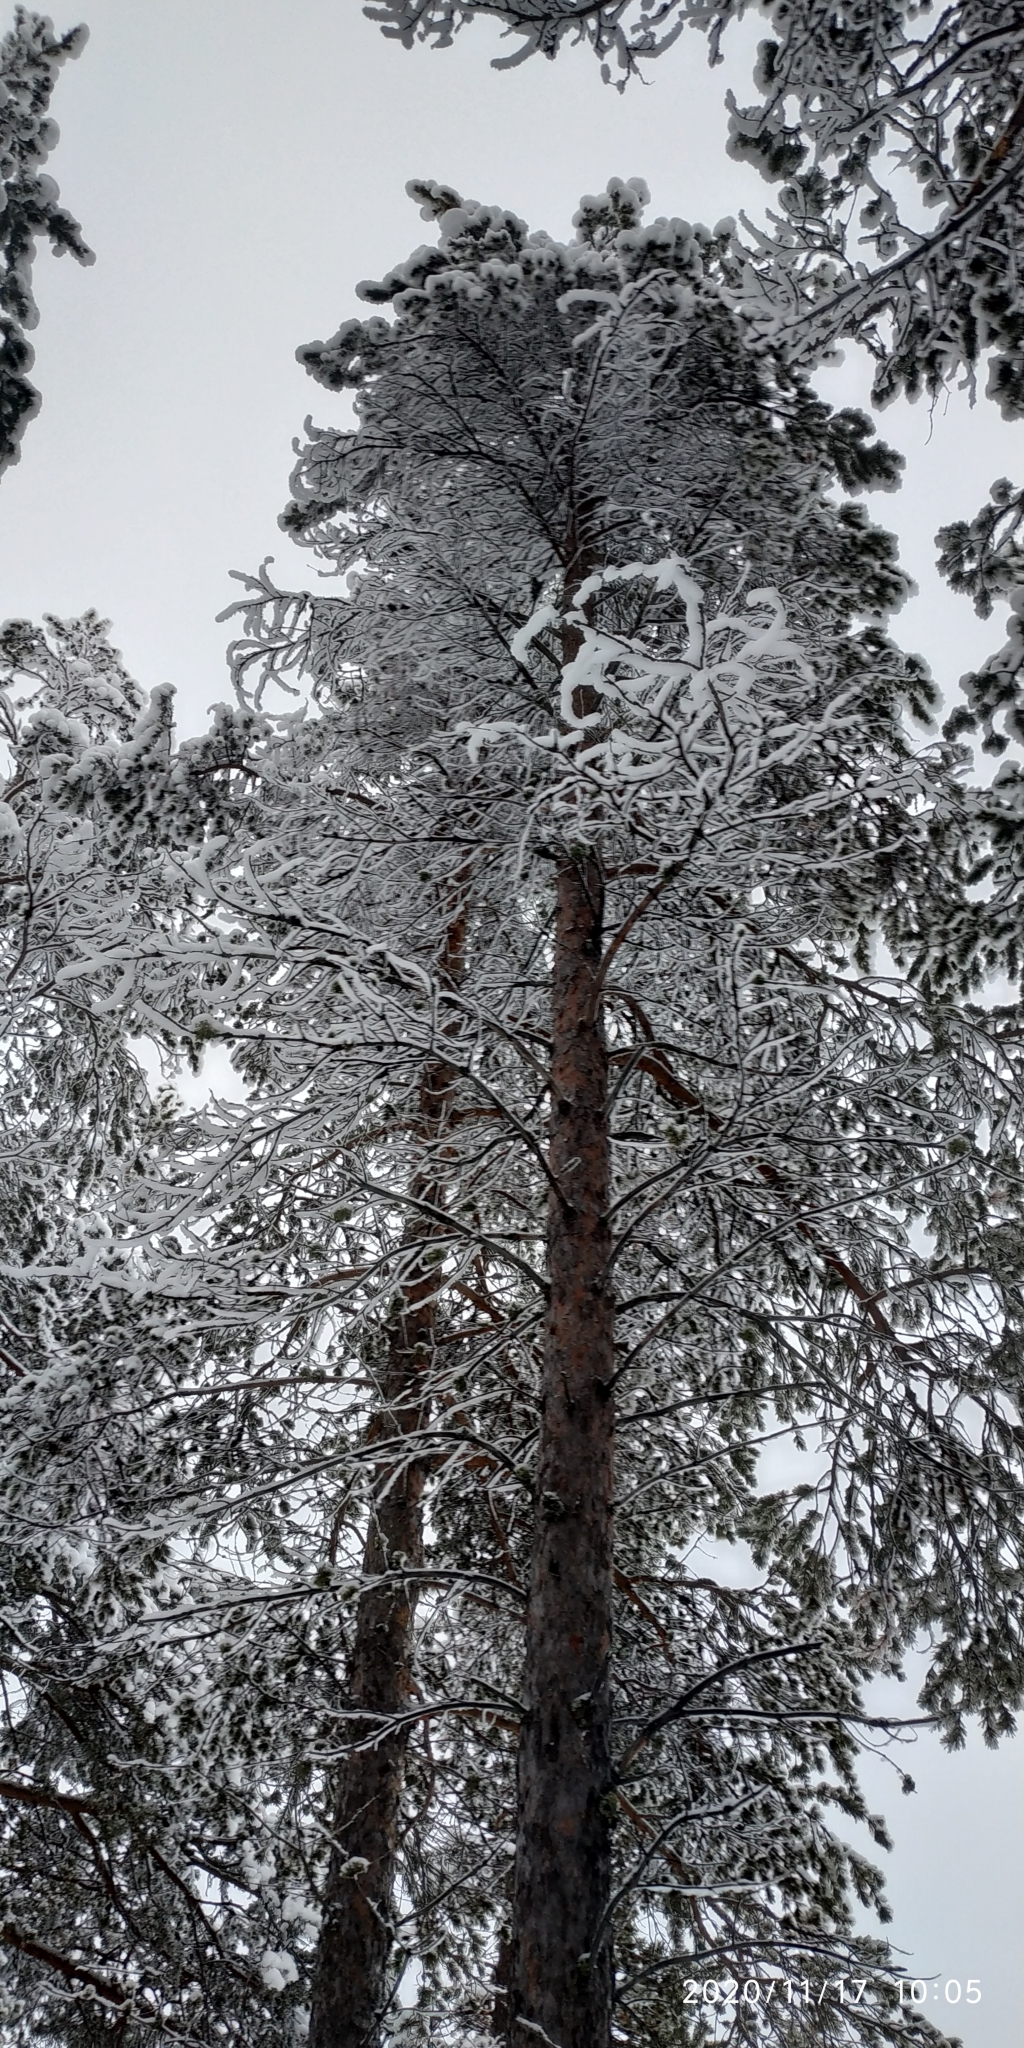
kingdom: Plantae
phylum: Tracheophyta
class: Pinopsida
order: Pinales
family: Pinaceae
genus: Pinus
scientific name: Pinus sylvestris
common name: Scots pine
